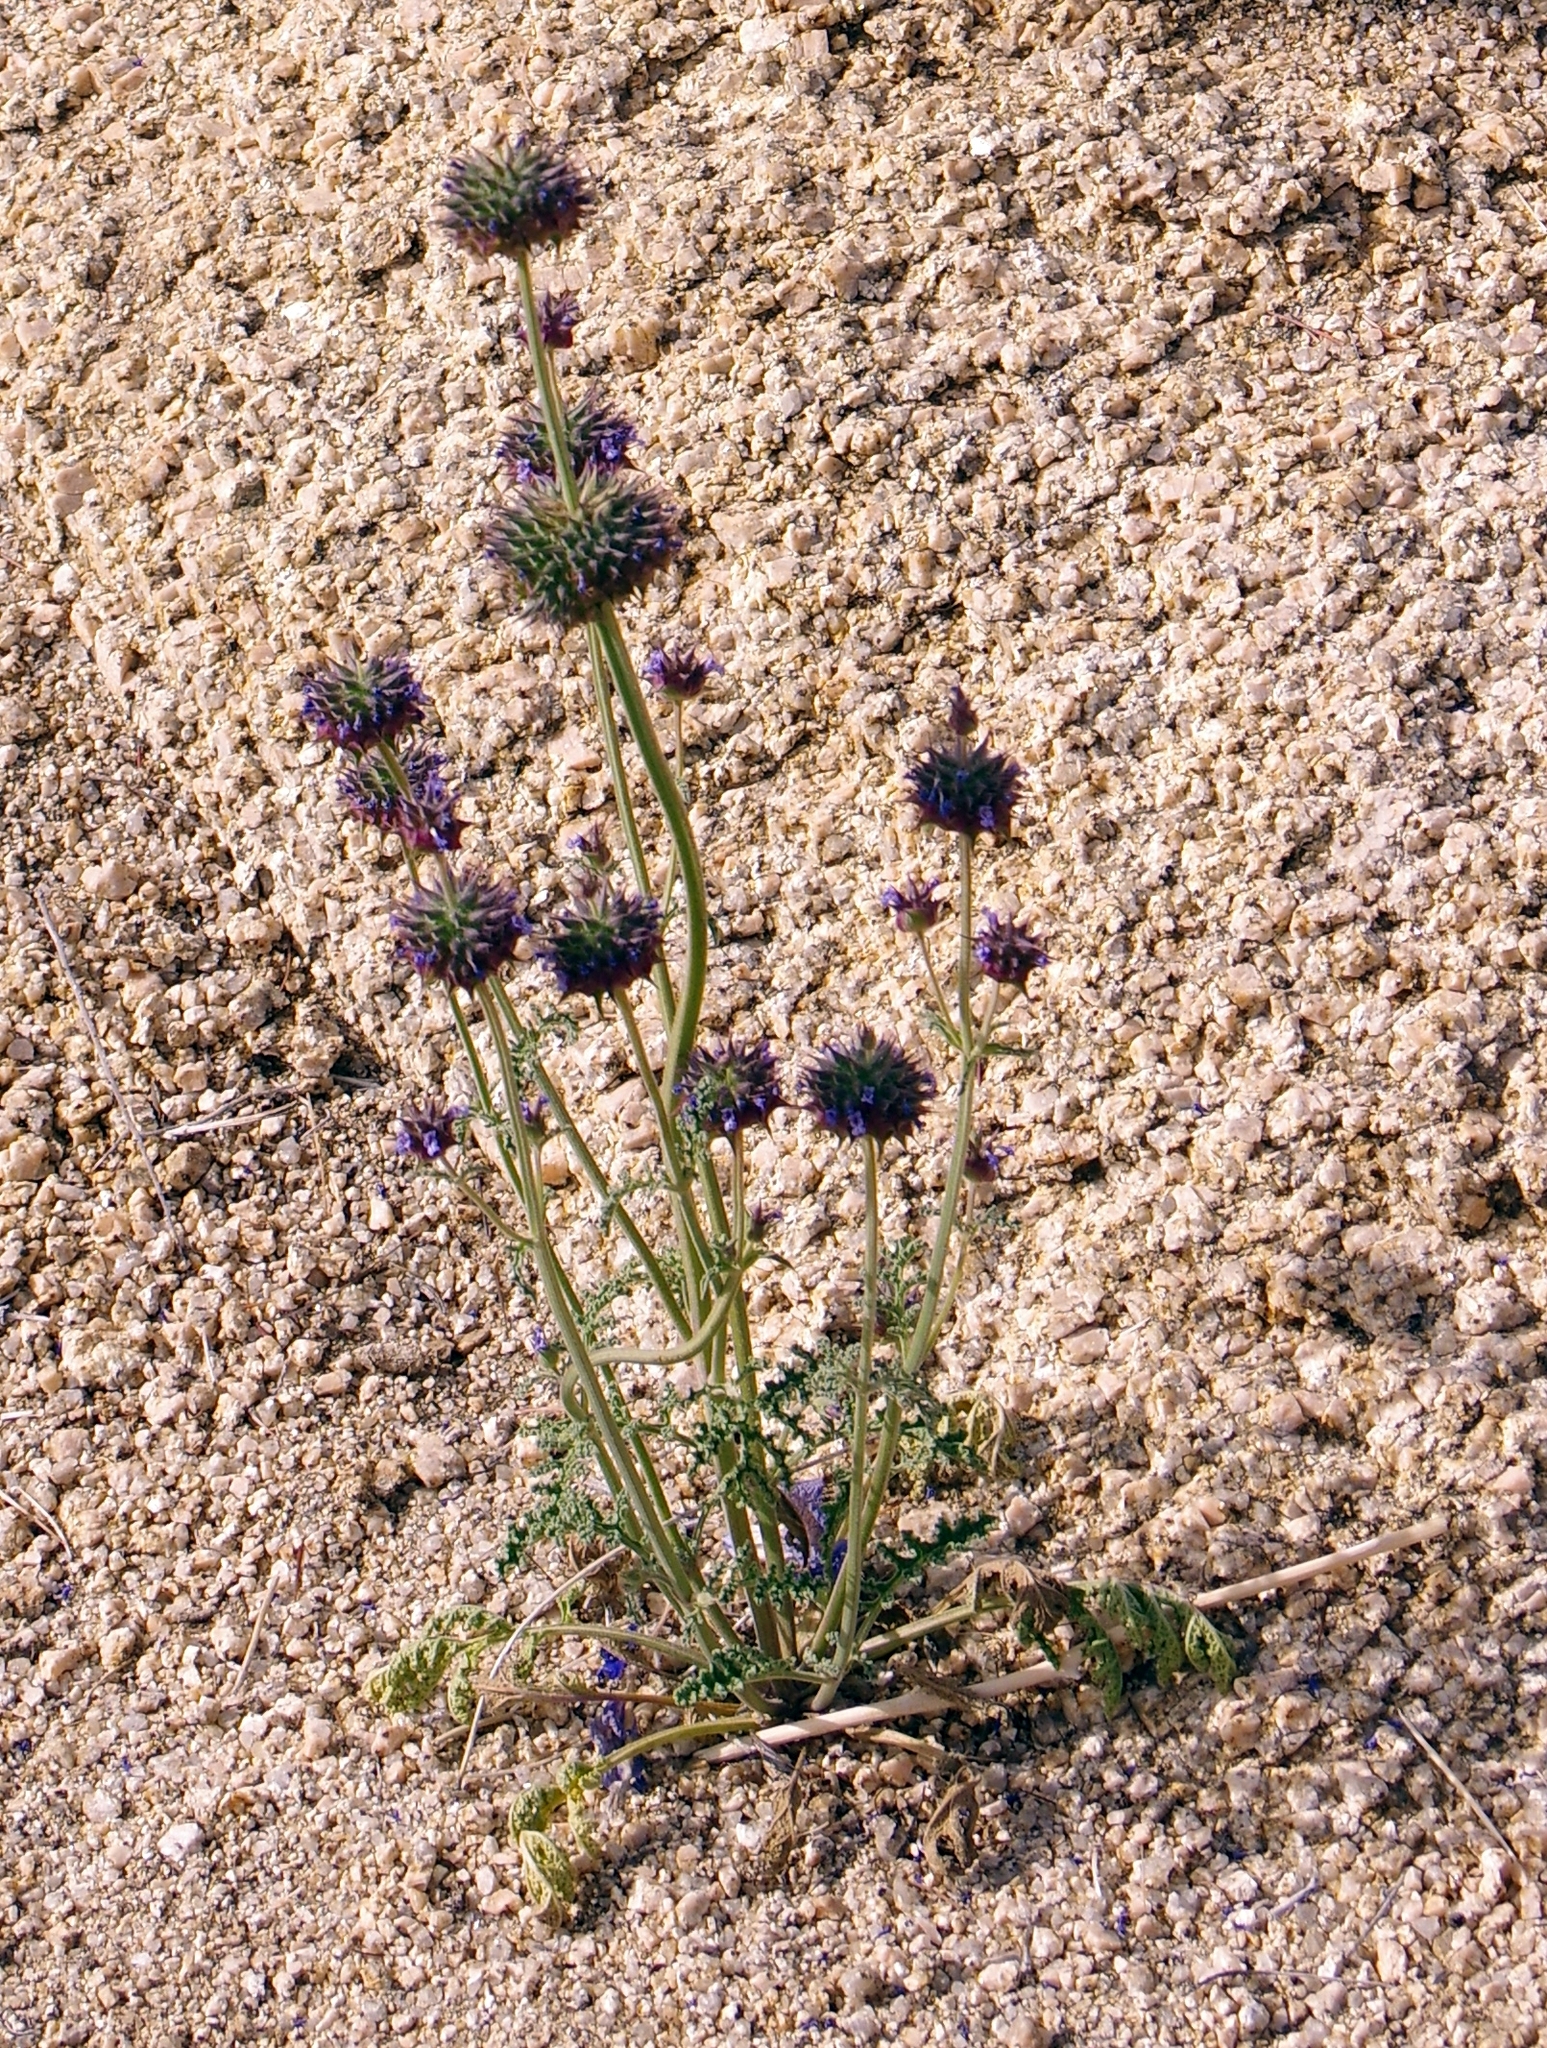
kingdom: Plantae
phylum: Tracheophyta
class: Magnoliopsida
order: Lamiales
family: Lamiaceae
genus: Salvia
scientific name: Salvia columbariae
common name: Chia
